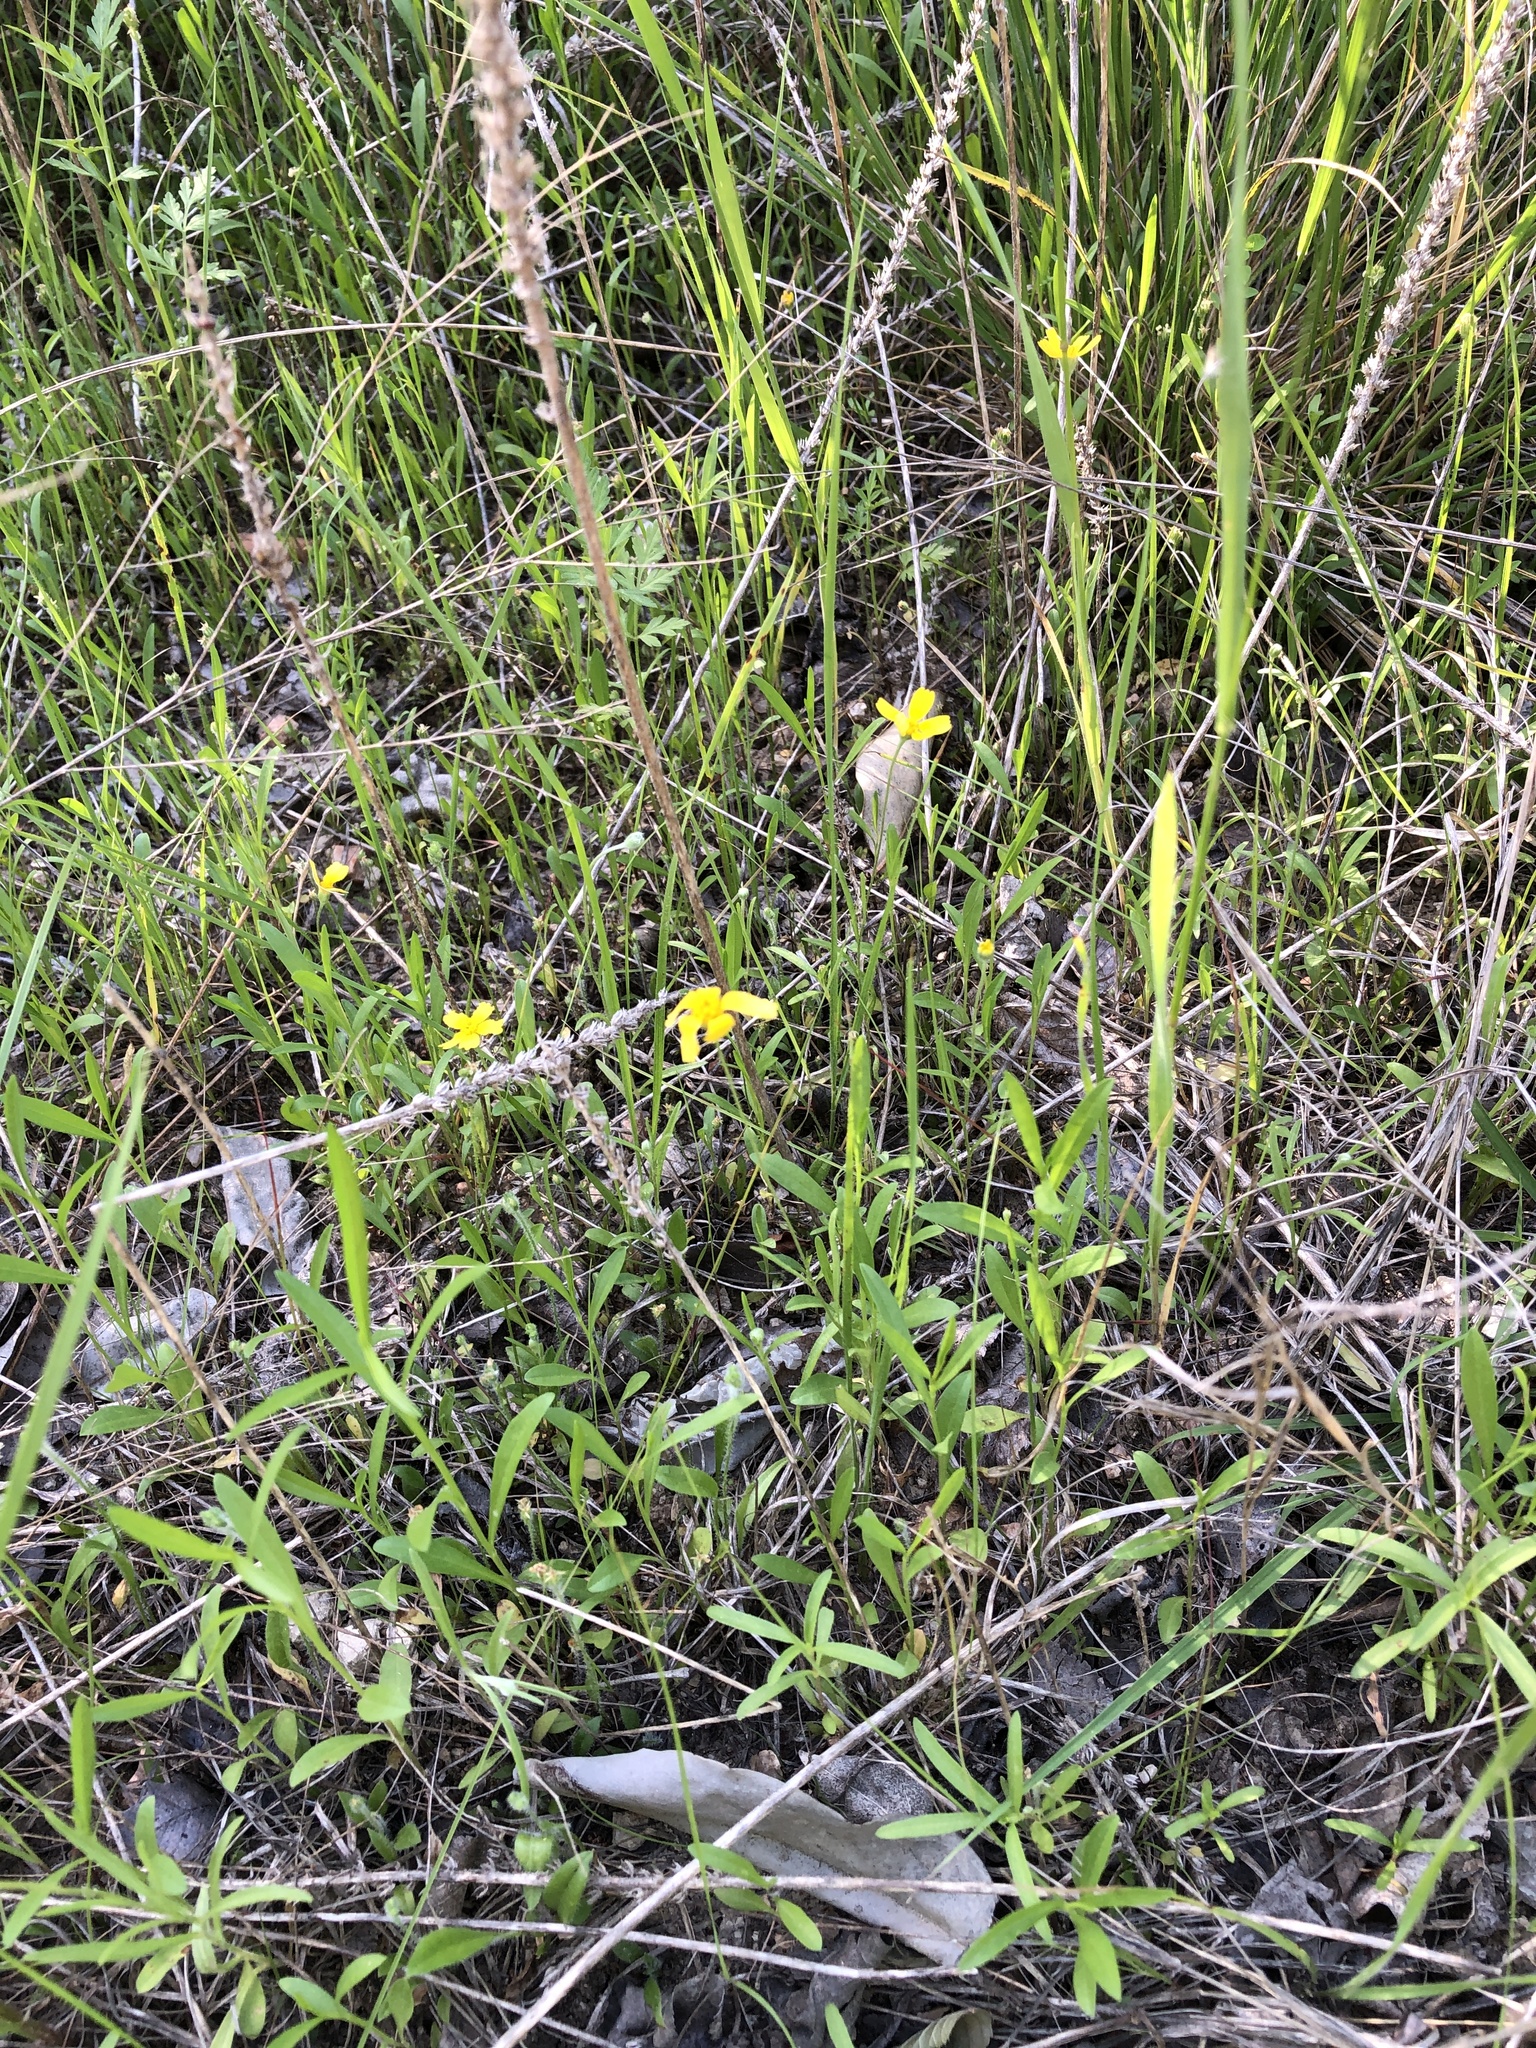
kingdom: Plantae
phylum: Tracheophyta
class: Magnoliopsida
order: Asterales
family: Asteraceae
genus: Tetraneuris
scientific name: Tetraneuris linearifolia
